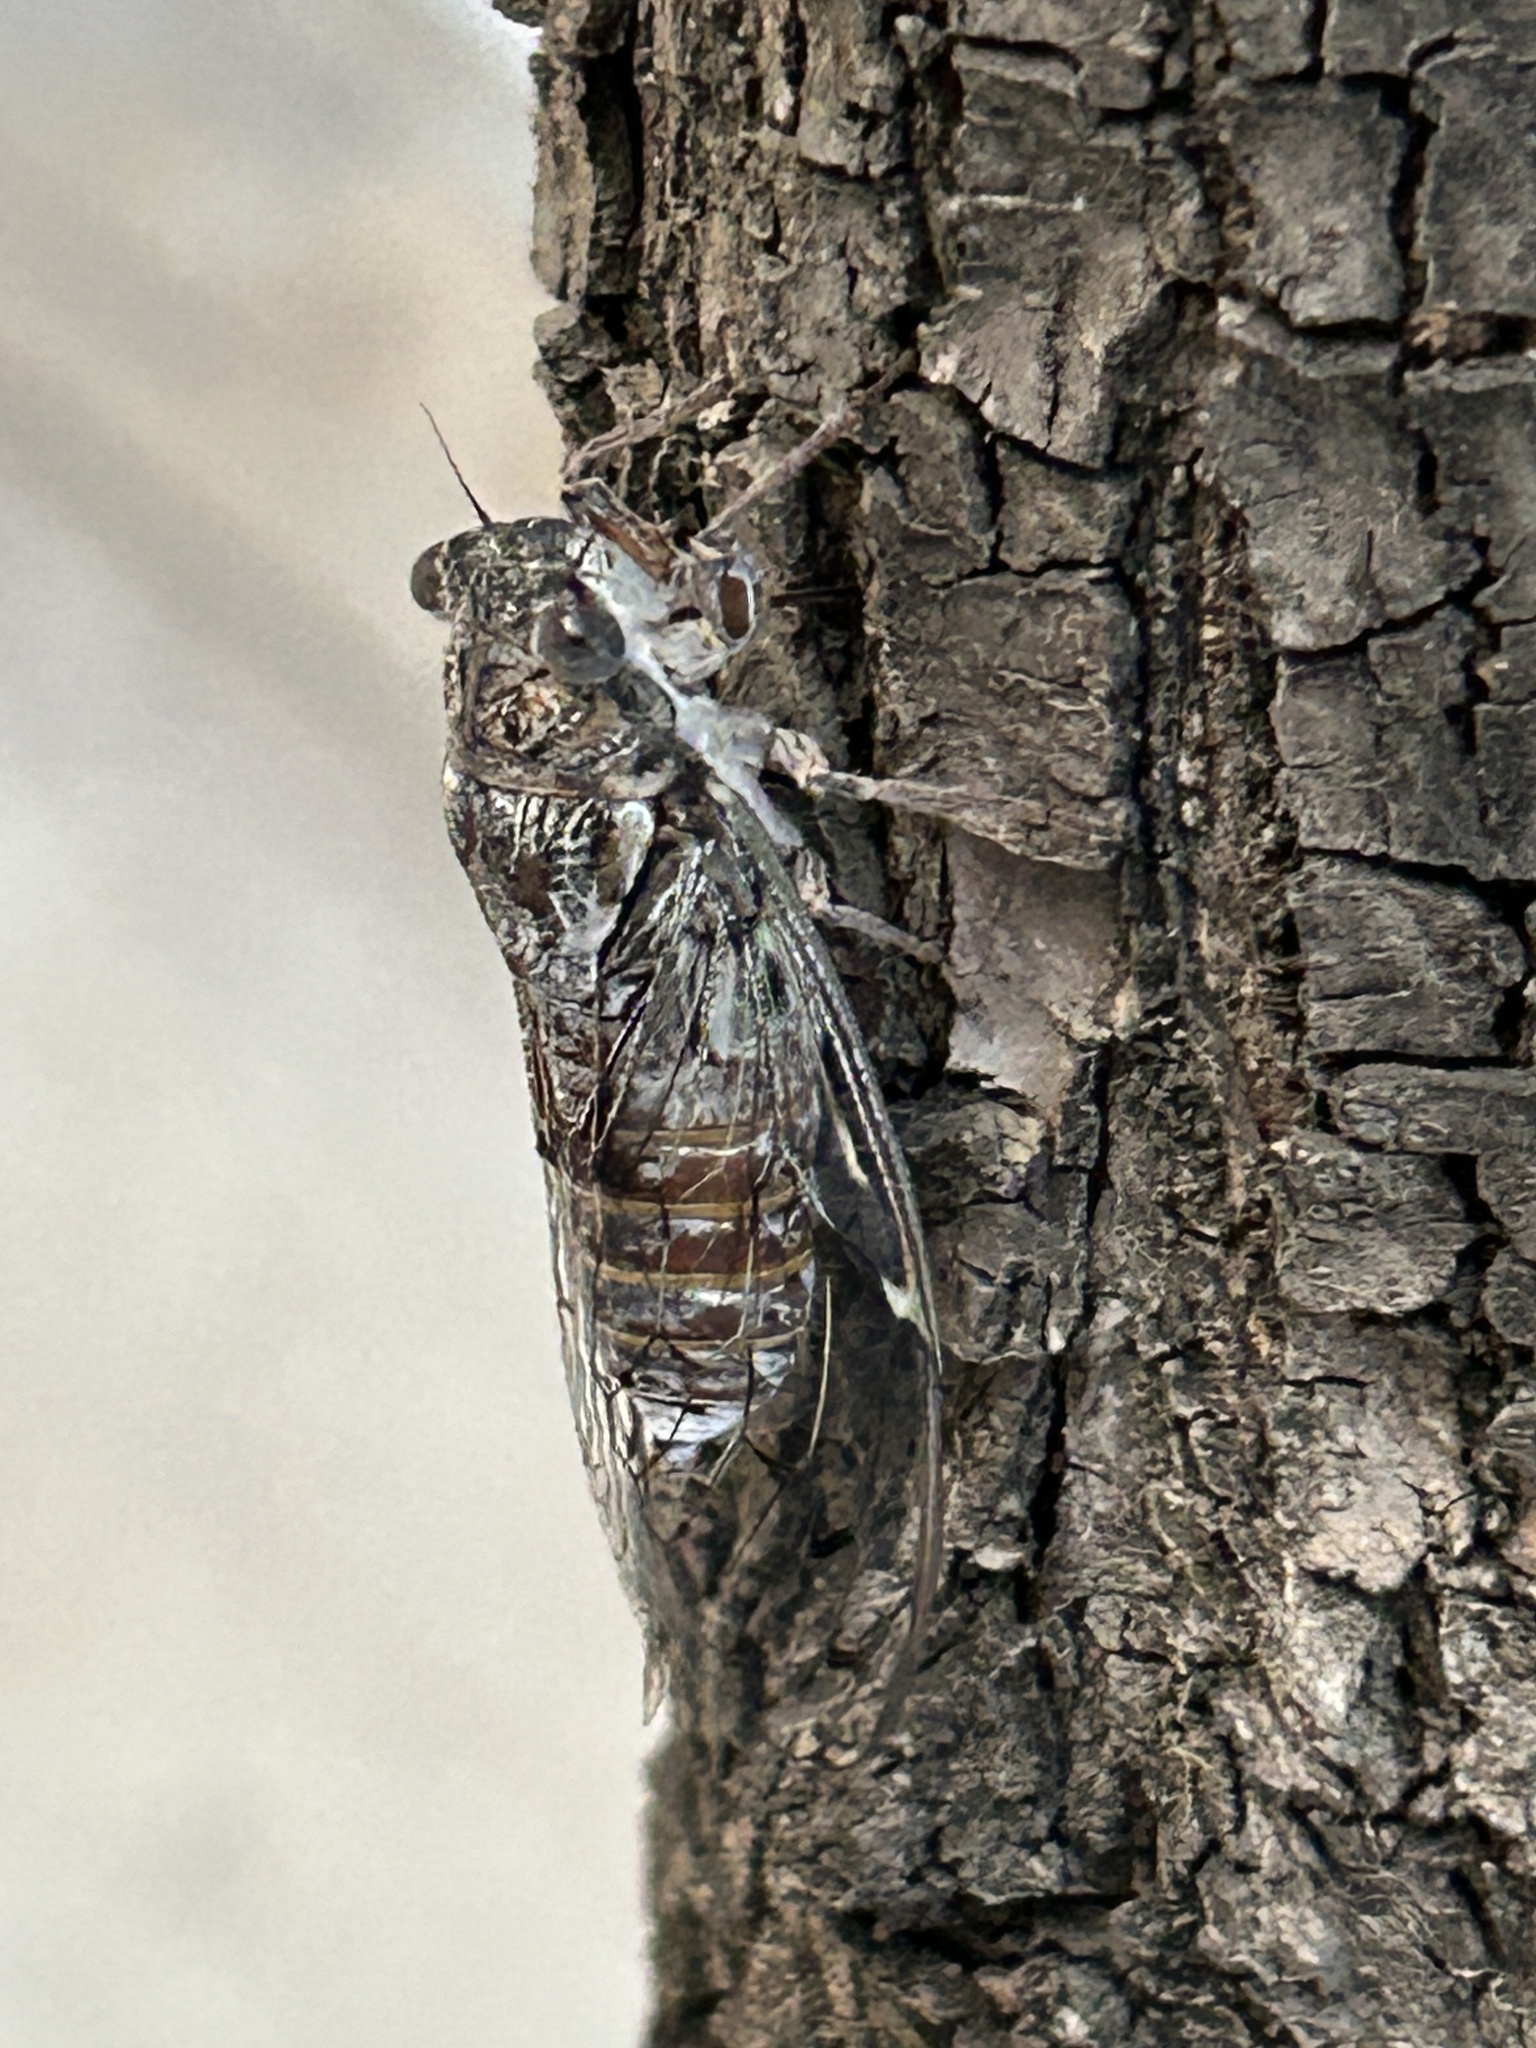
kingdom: Animalia
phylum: Arthropoda
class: Insecta
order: Hemiptera
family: Cicadidae
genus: Cicada
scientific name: Cicada orni
